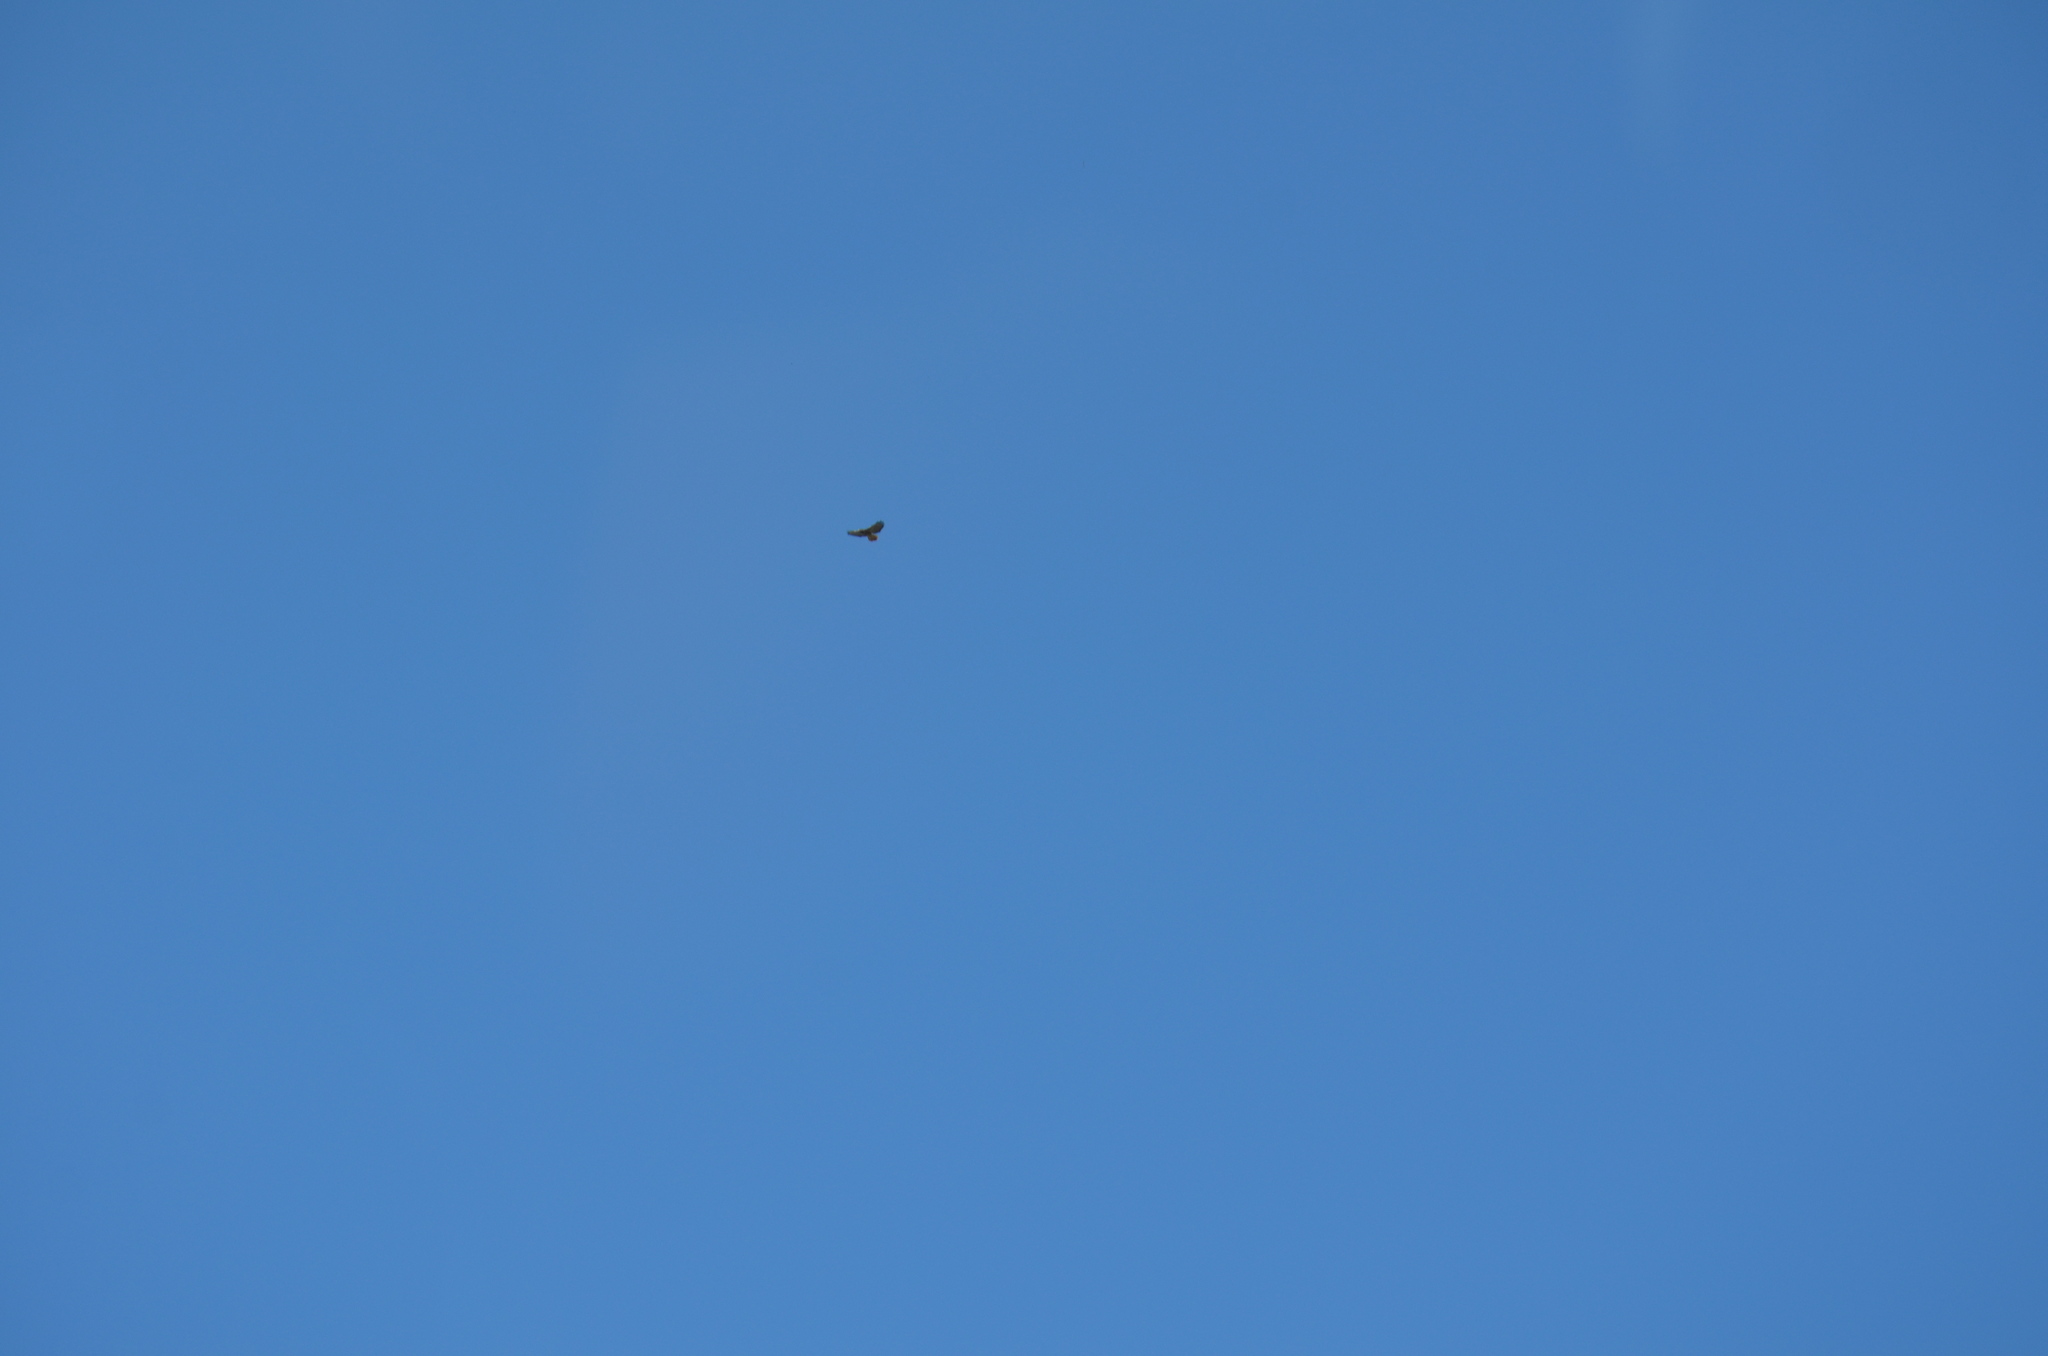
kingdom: Animalia
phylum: Chordata
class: Aves
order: Accipitriformes
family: Accipitridae
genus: Buteo
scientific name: Buteo jamaicensis
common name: Red-tailed hawk
